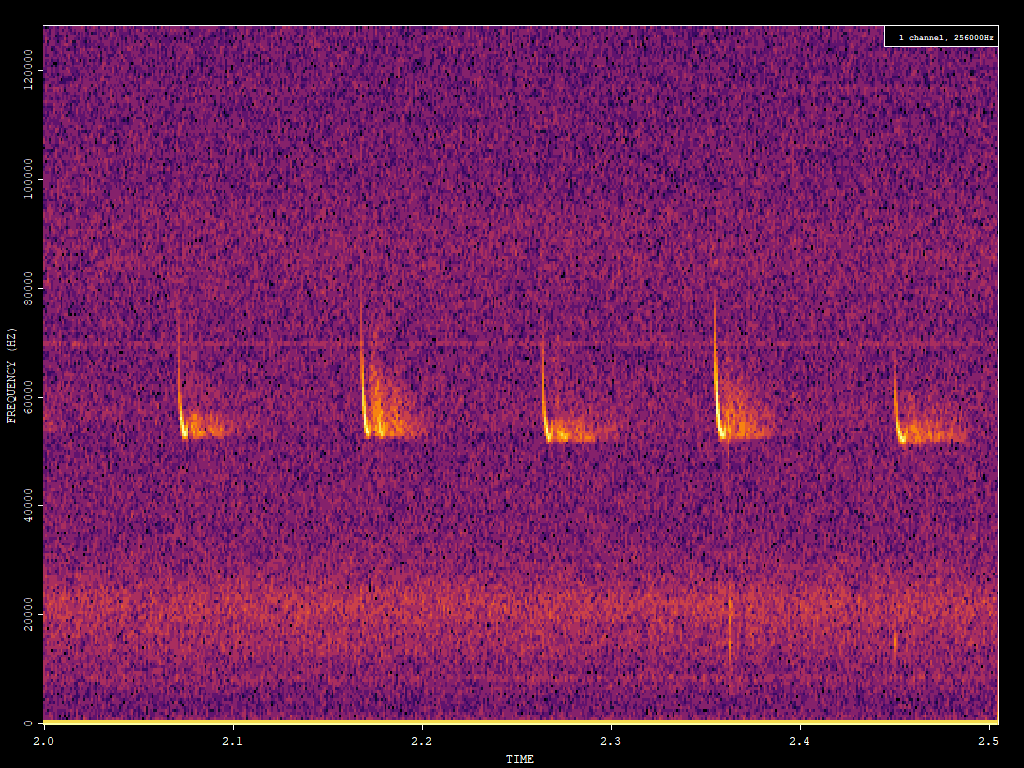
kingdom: Animalia
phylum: Chordata
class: Mammalia
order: Chiroptera
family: Vespertilionidae
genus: Pipistrellus
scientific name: Pipistrellus pygmaeus
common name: Soprano pipistrelle
